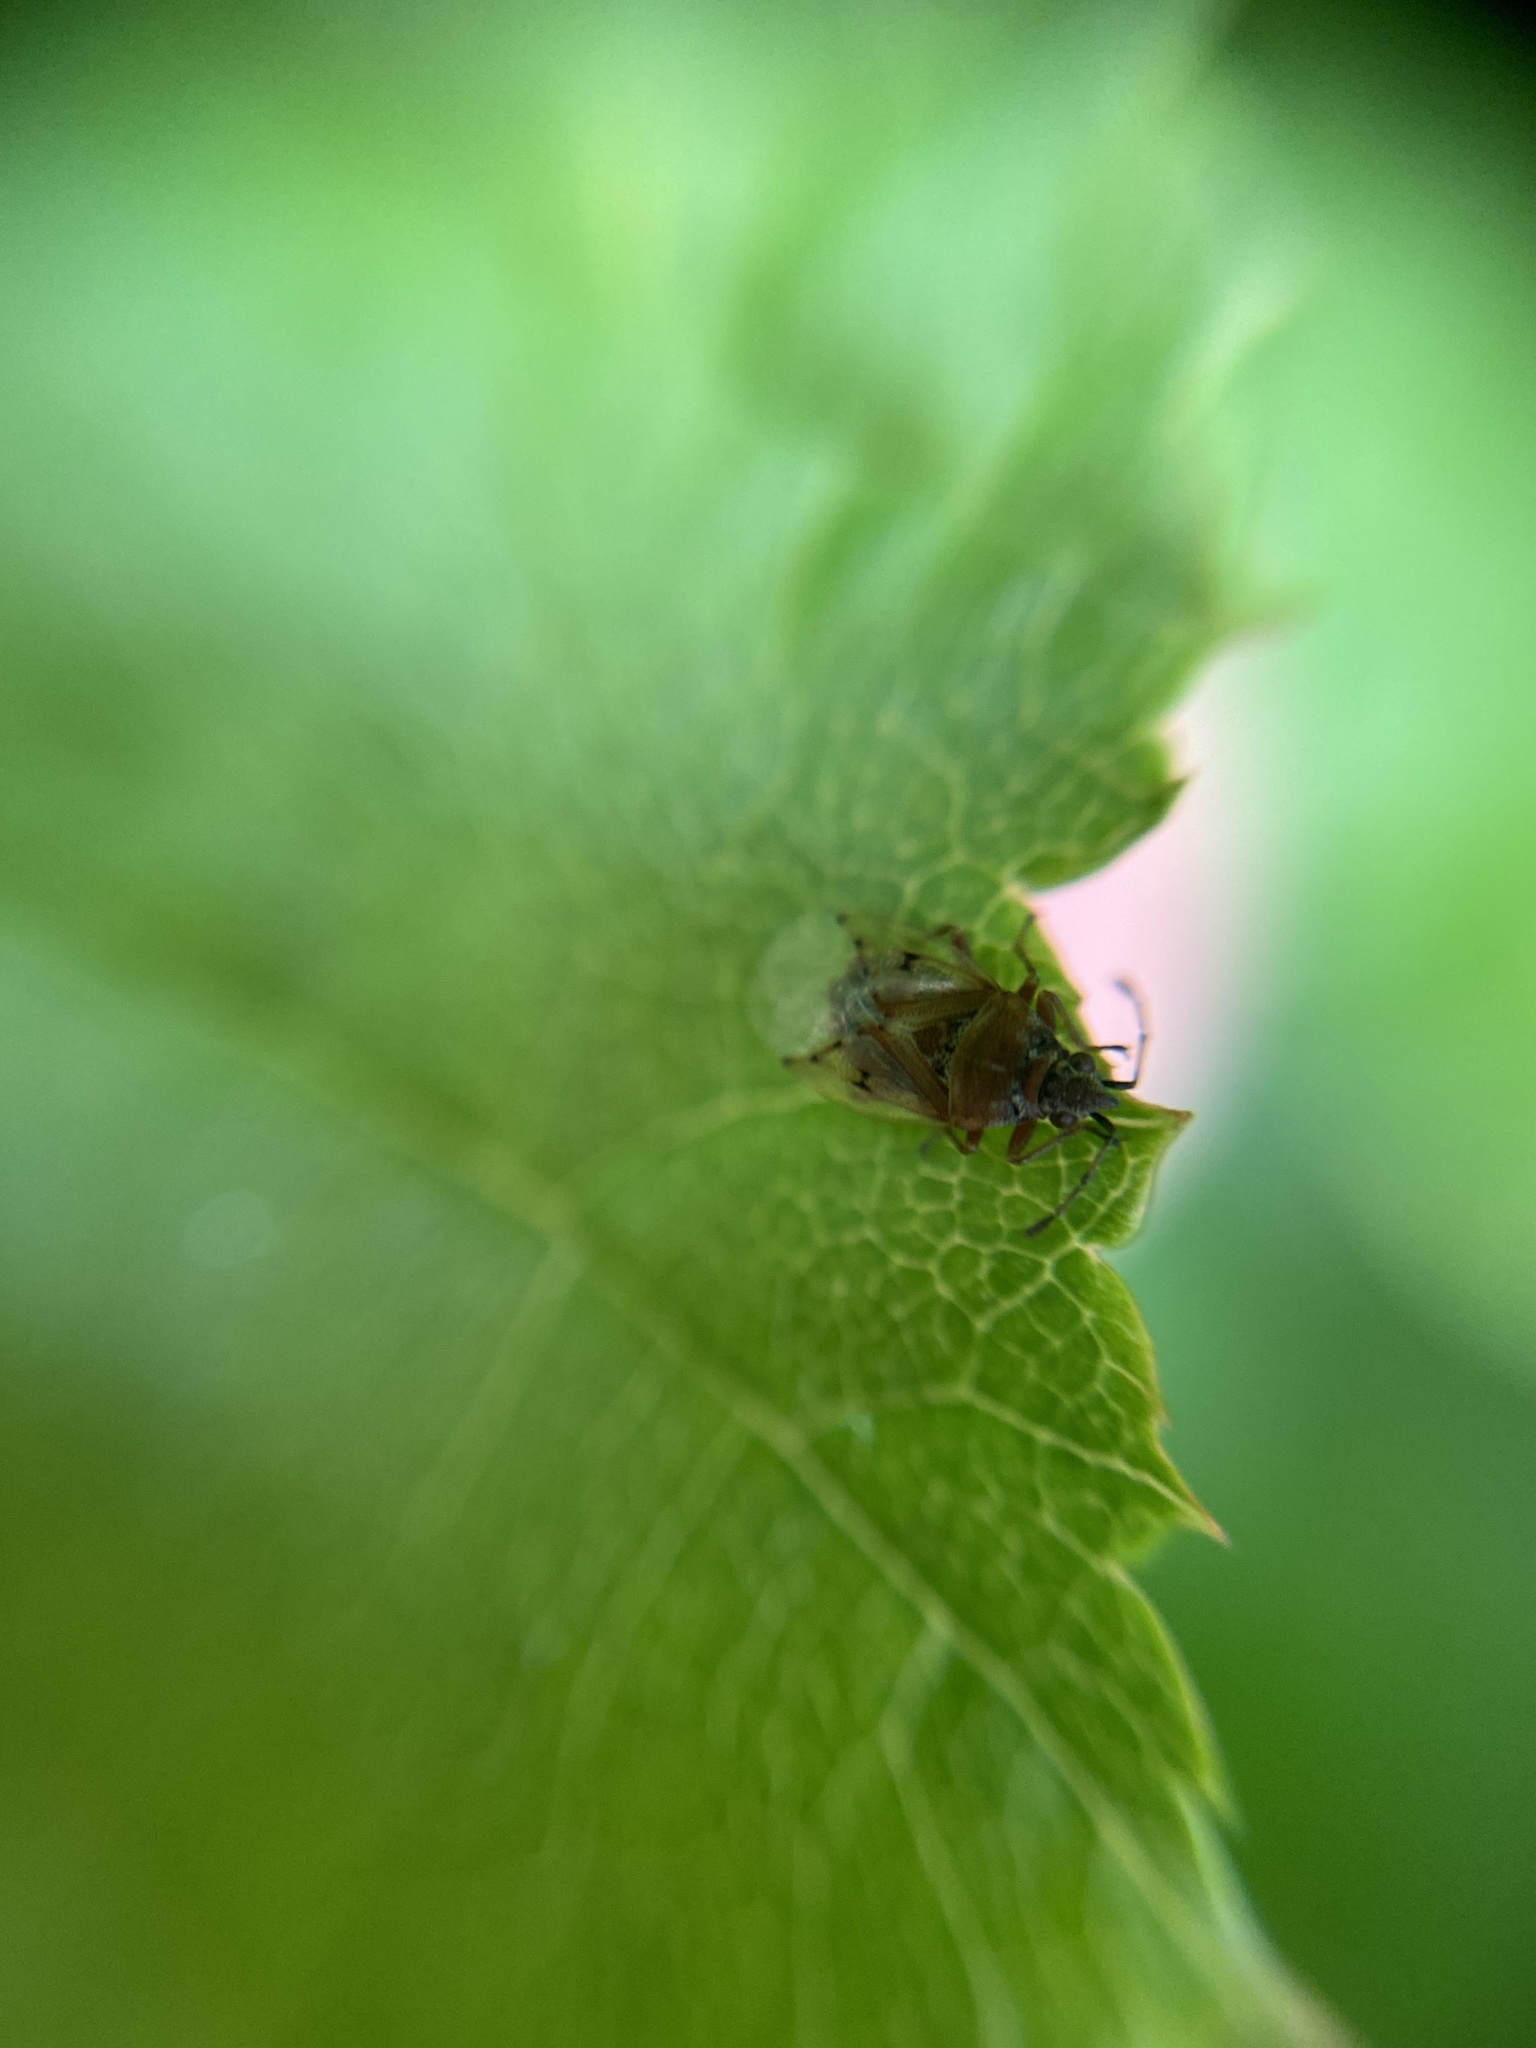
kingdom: Animalia
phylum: Arthropoda
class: Insecta
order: Hemiptera
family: Lygaeidae
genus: Kleidocerys
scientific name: Kleidocerys resedae
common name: Birch catkin bug
